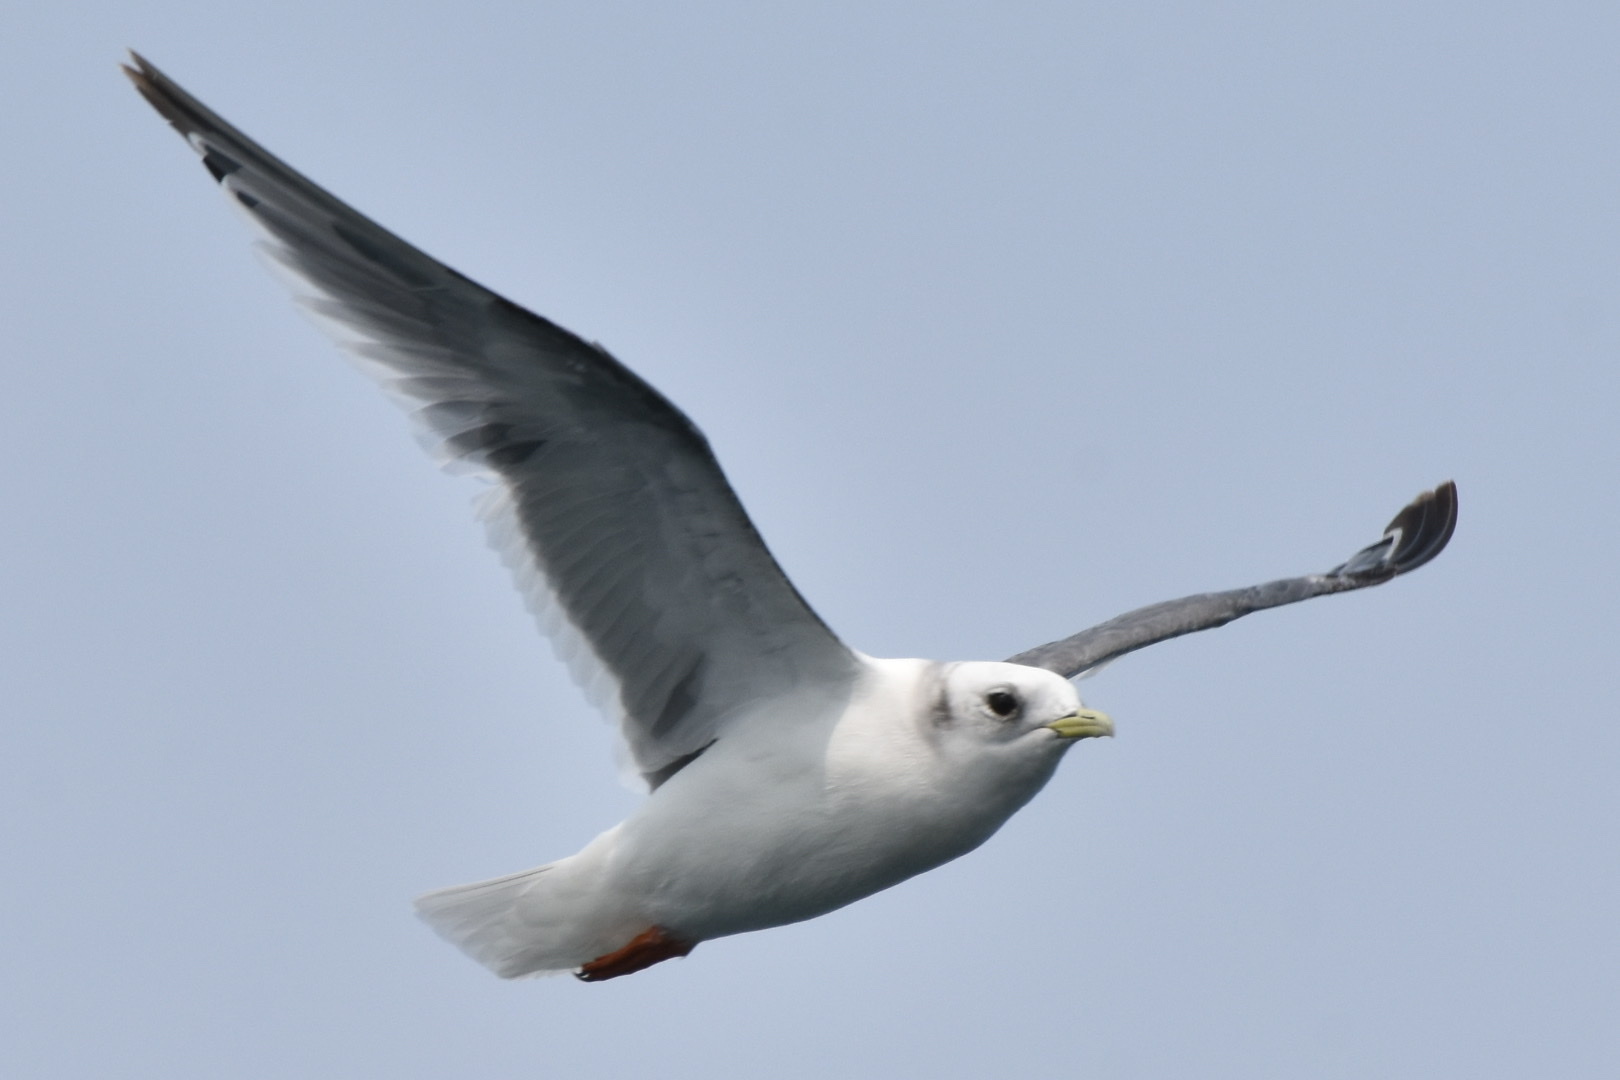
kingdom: Animalia
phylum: Chordata
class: Aves
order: Charadriiformes
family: Laridae
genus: Rissa
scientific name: Rissa brevirostris
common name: Red-legged kittiwake
